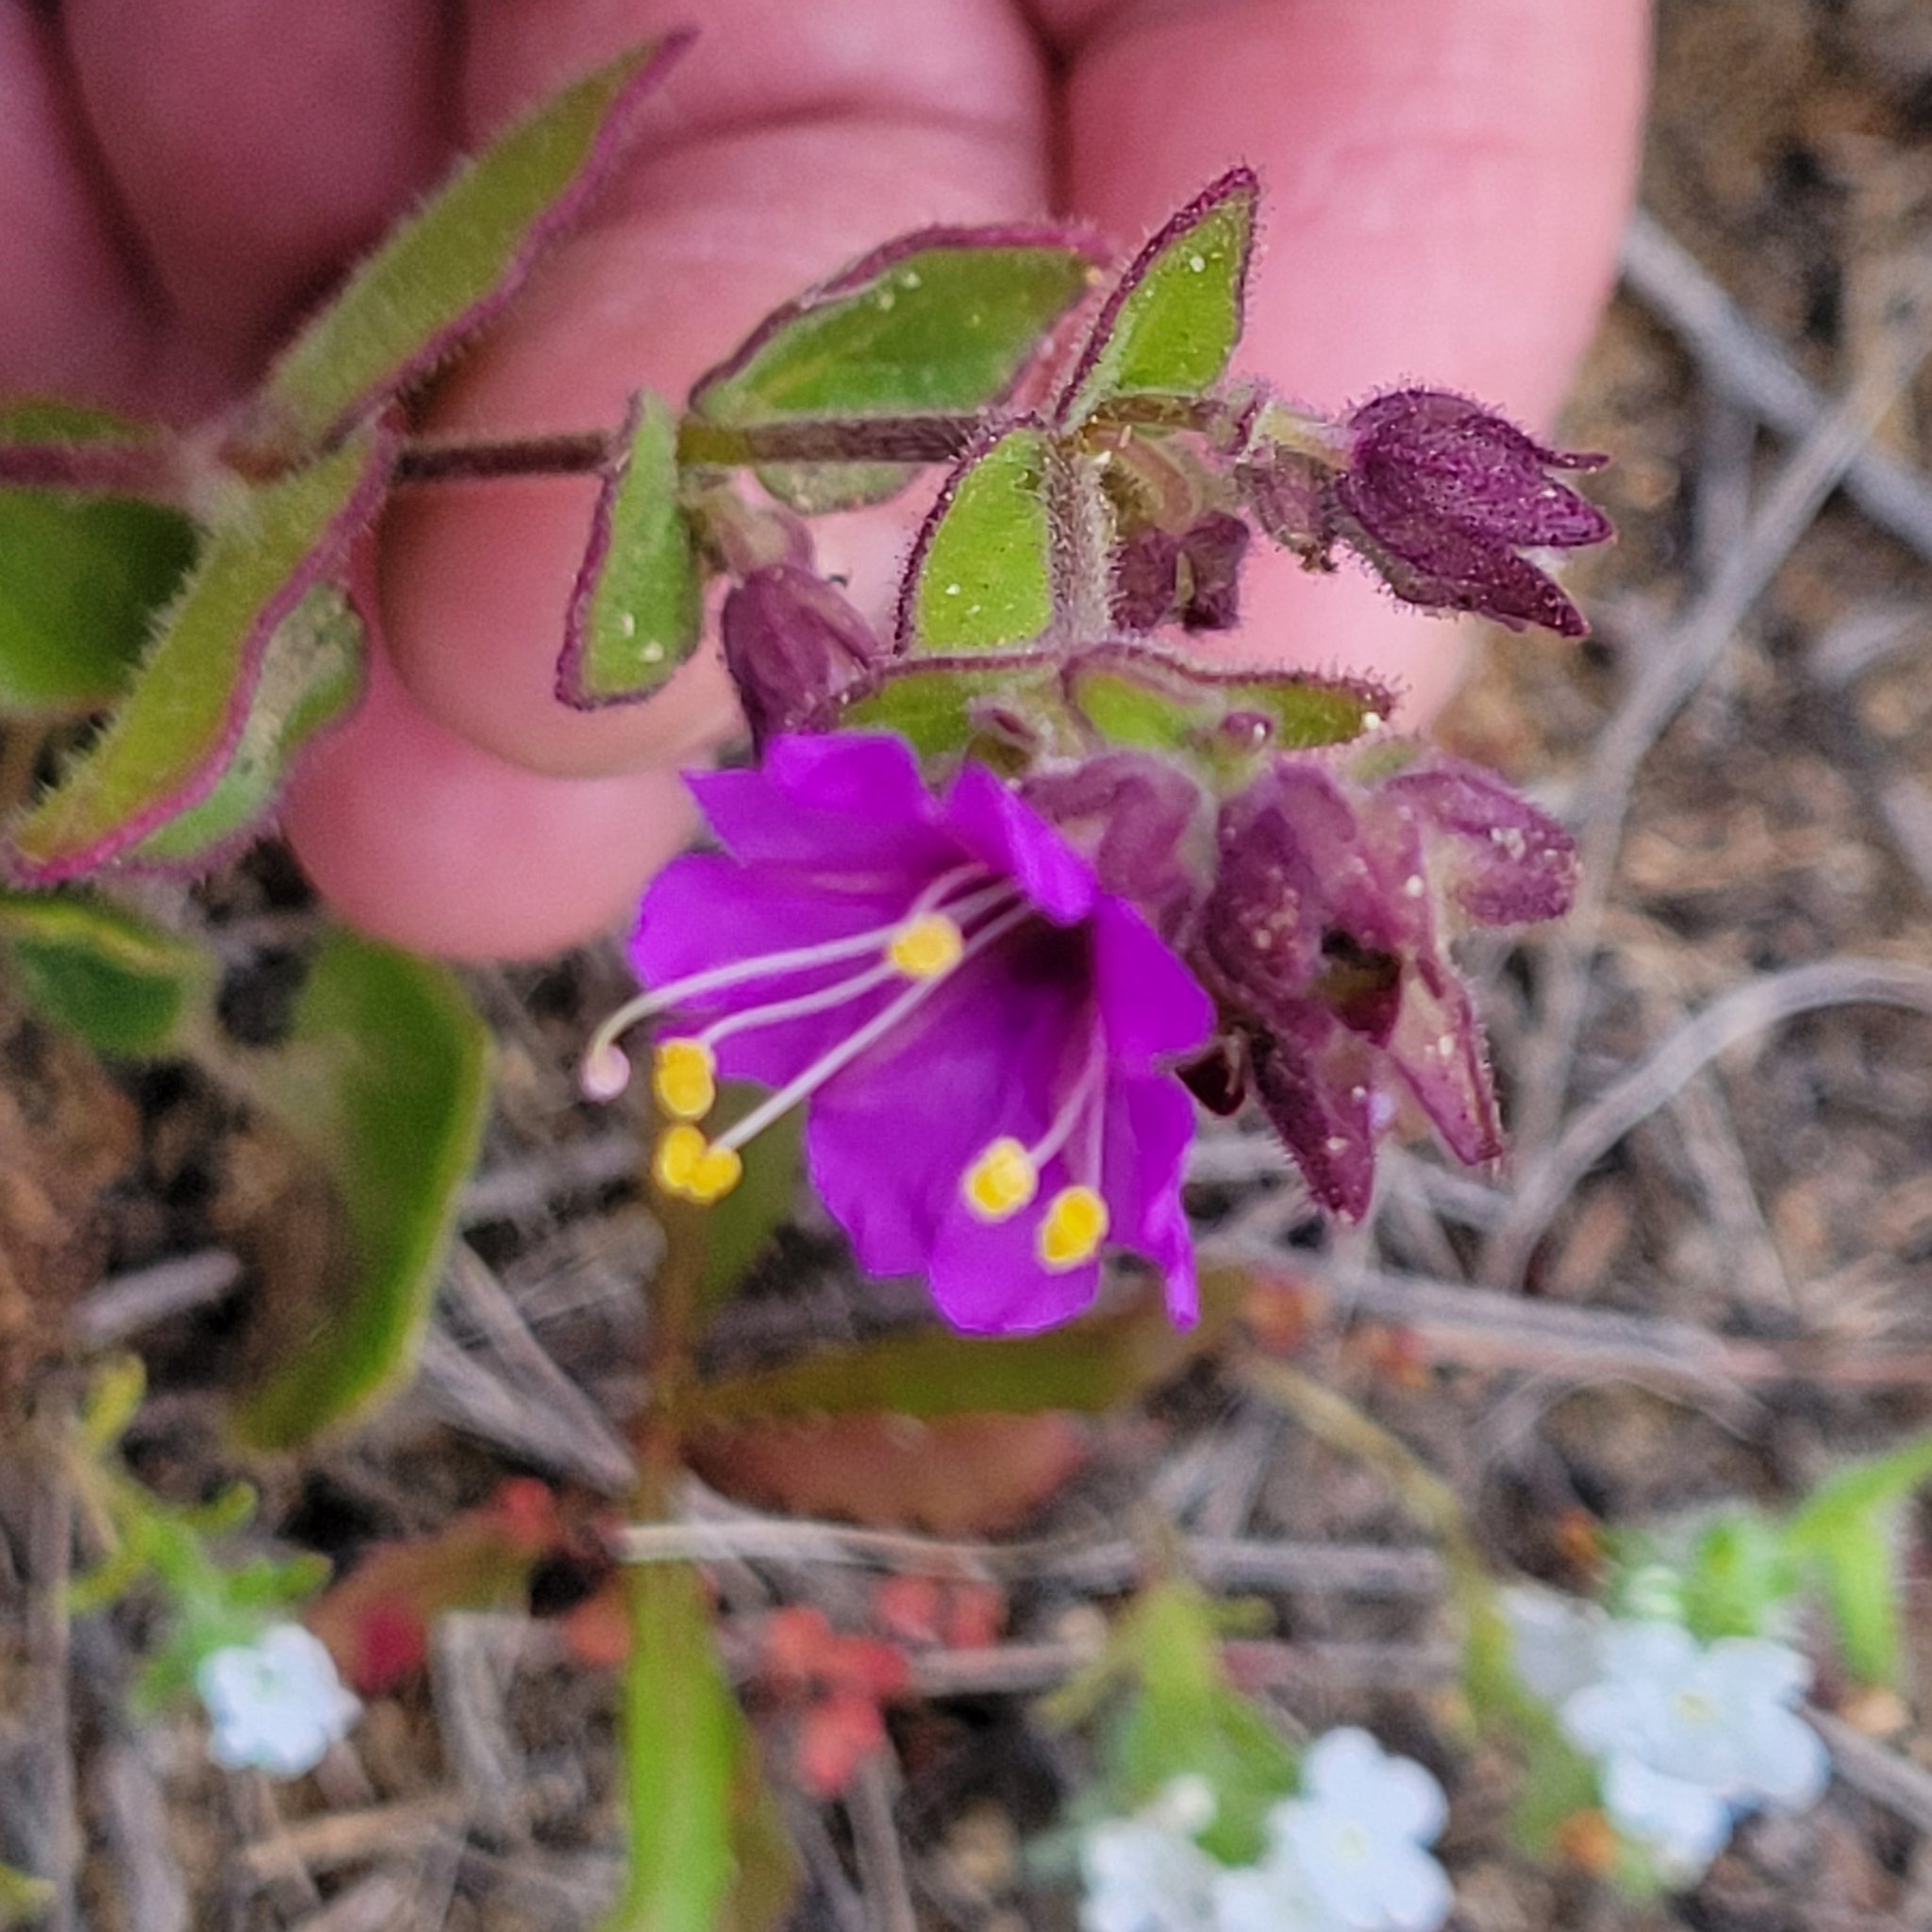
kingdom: Plantae
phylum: Tracheophyta
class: Magnoliopsida
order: Caryophyllales
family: Nyctaginaceae
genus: Mirabilis
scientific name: Mirabilis laevis
